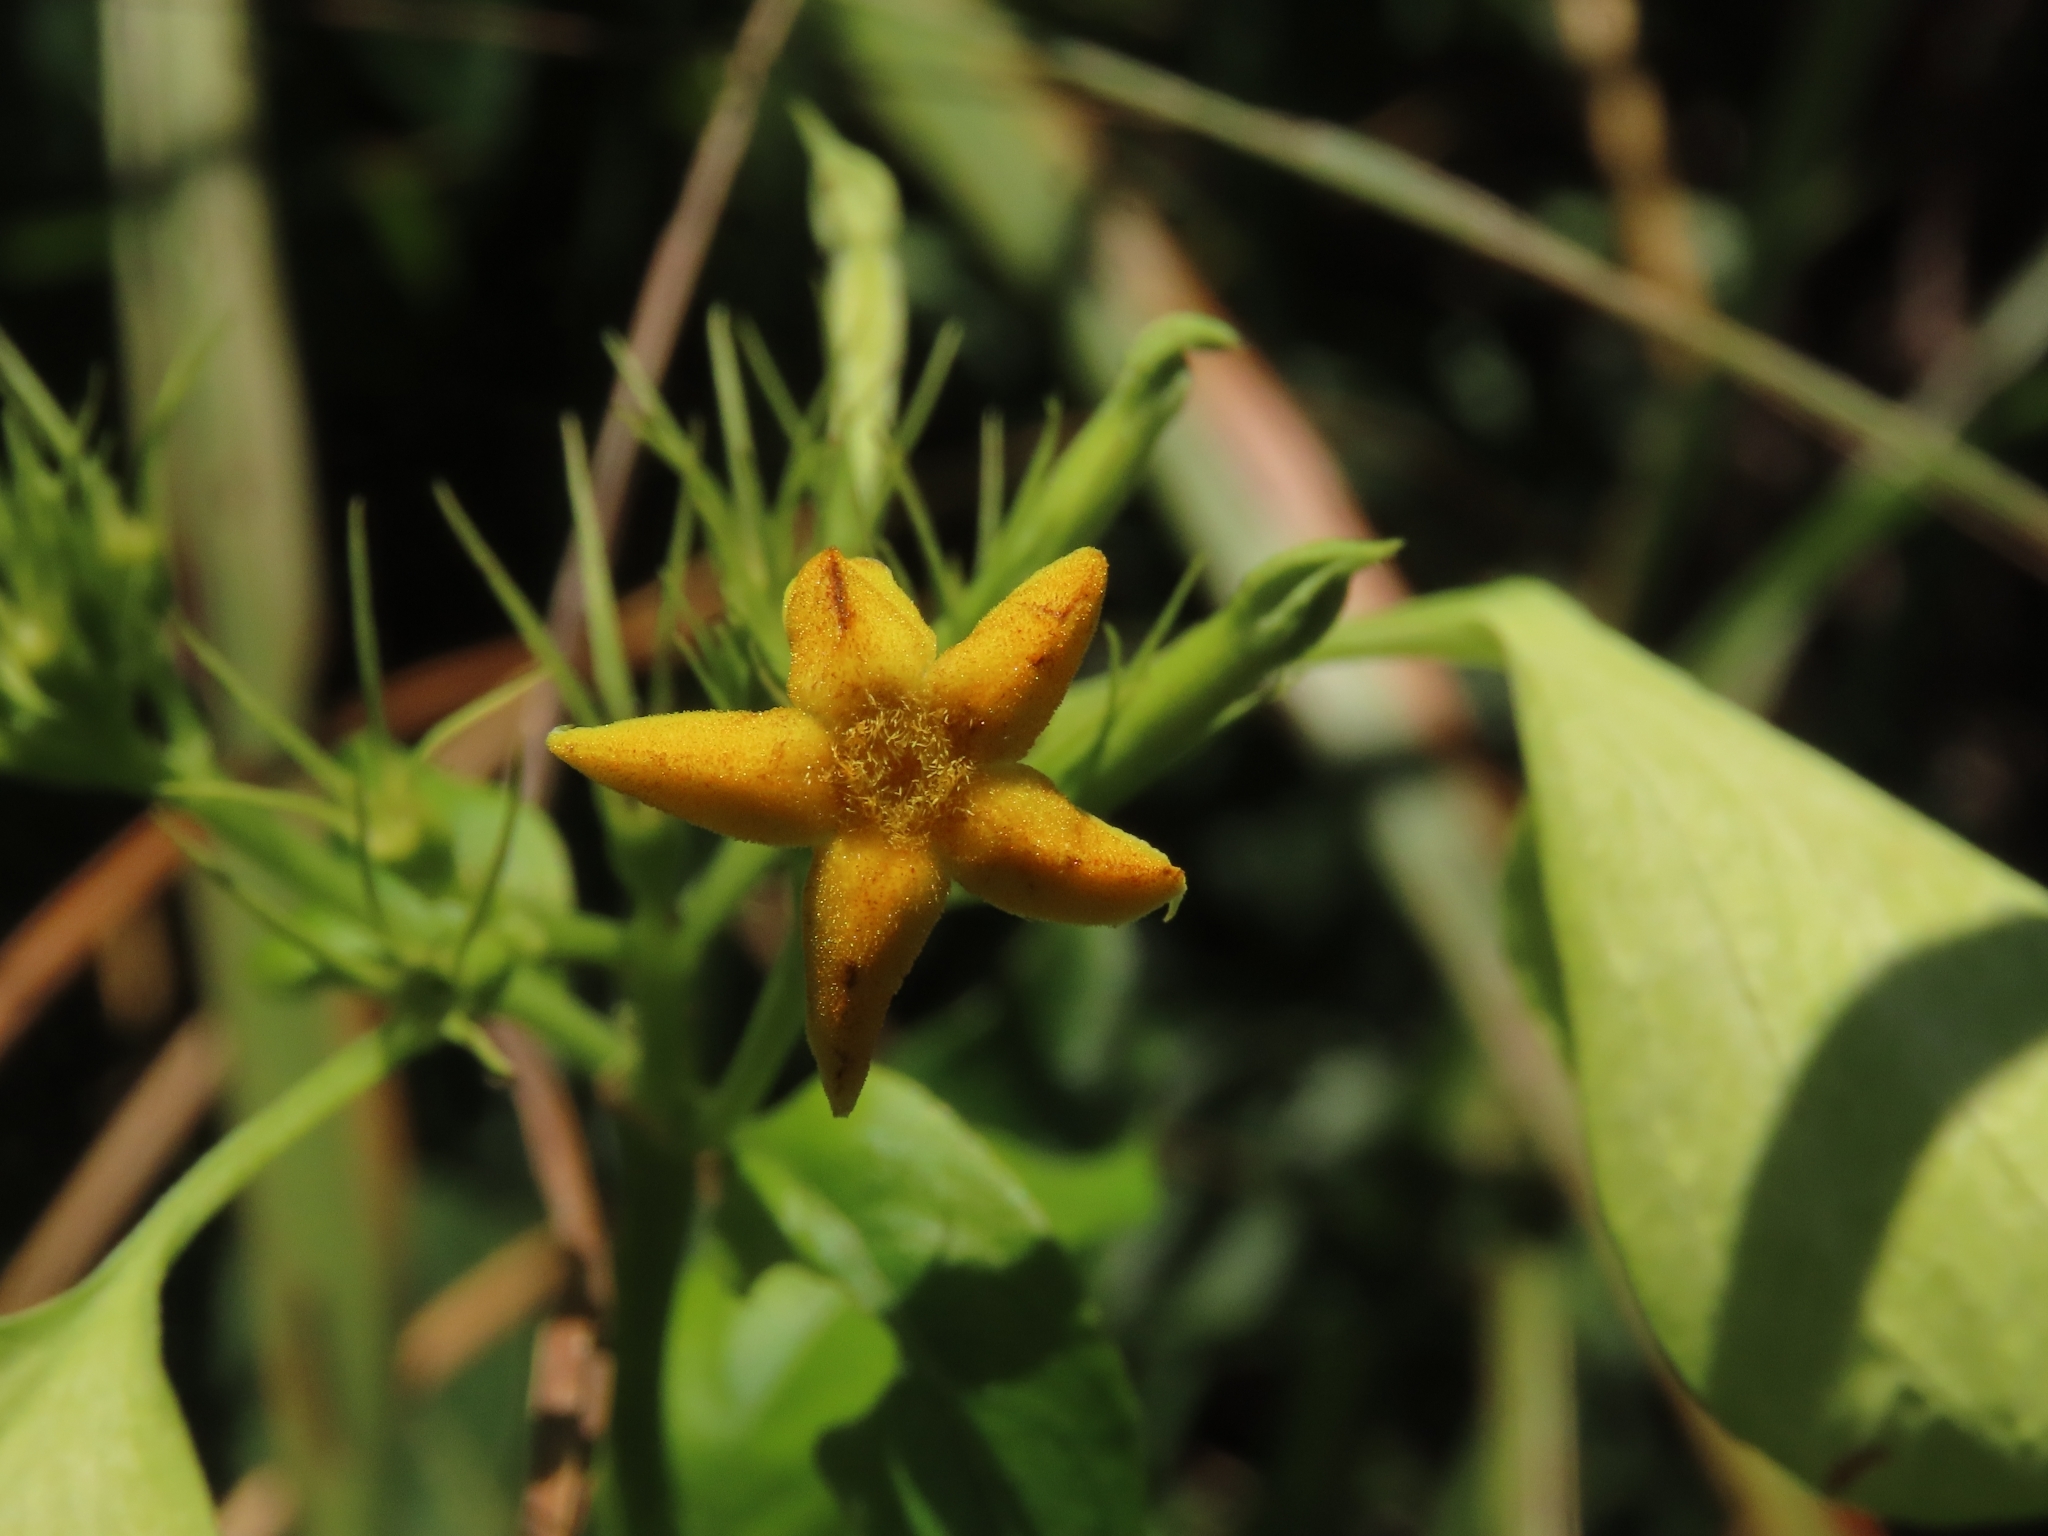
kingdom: Plantae
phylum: Tracheophyta
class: Magnoliopsida
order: Gentianales
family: Rubiaceae
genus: Mussaenda
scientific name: Mussaenda formosana
